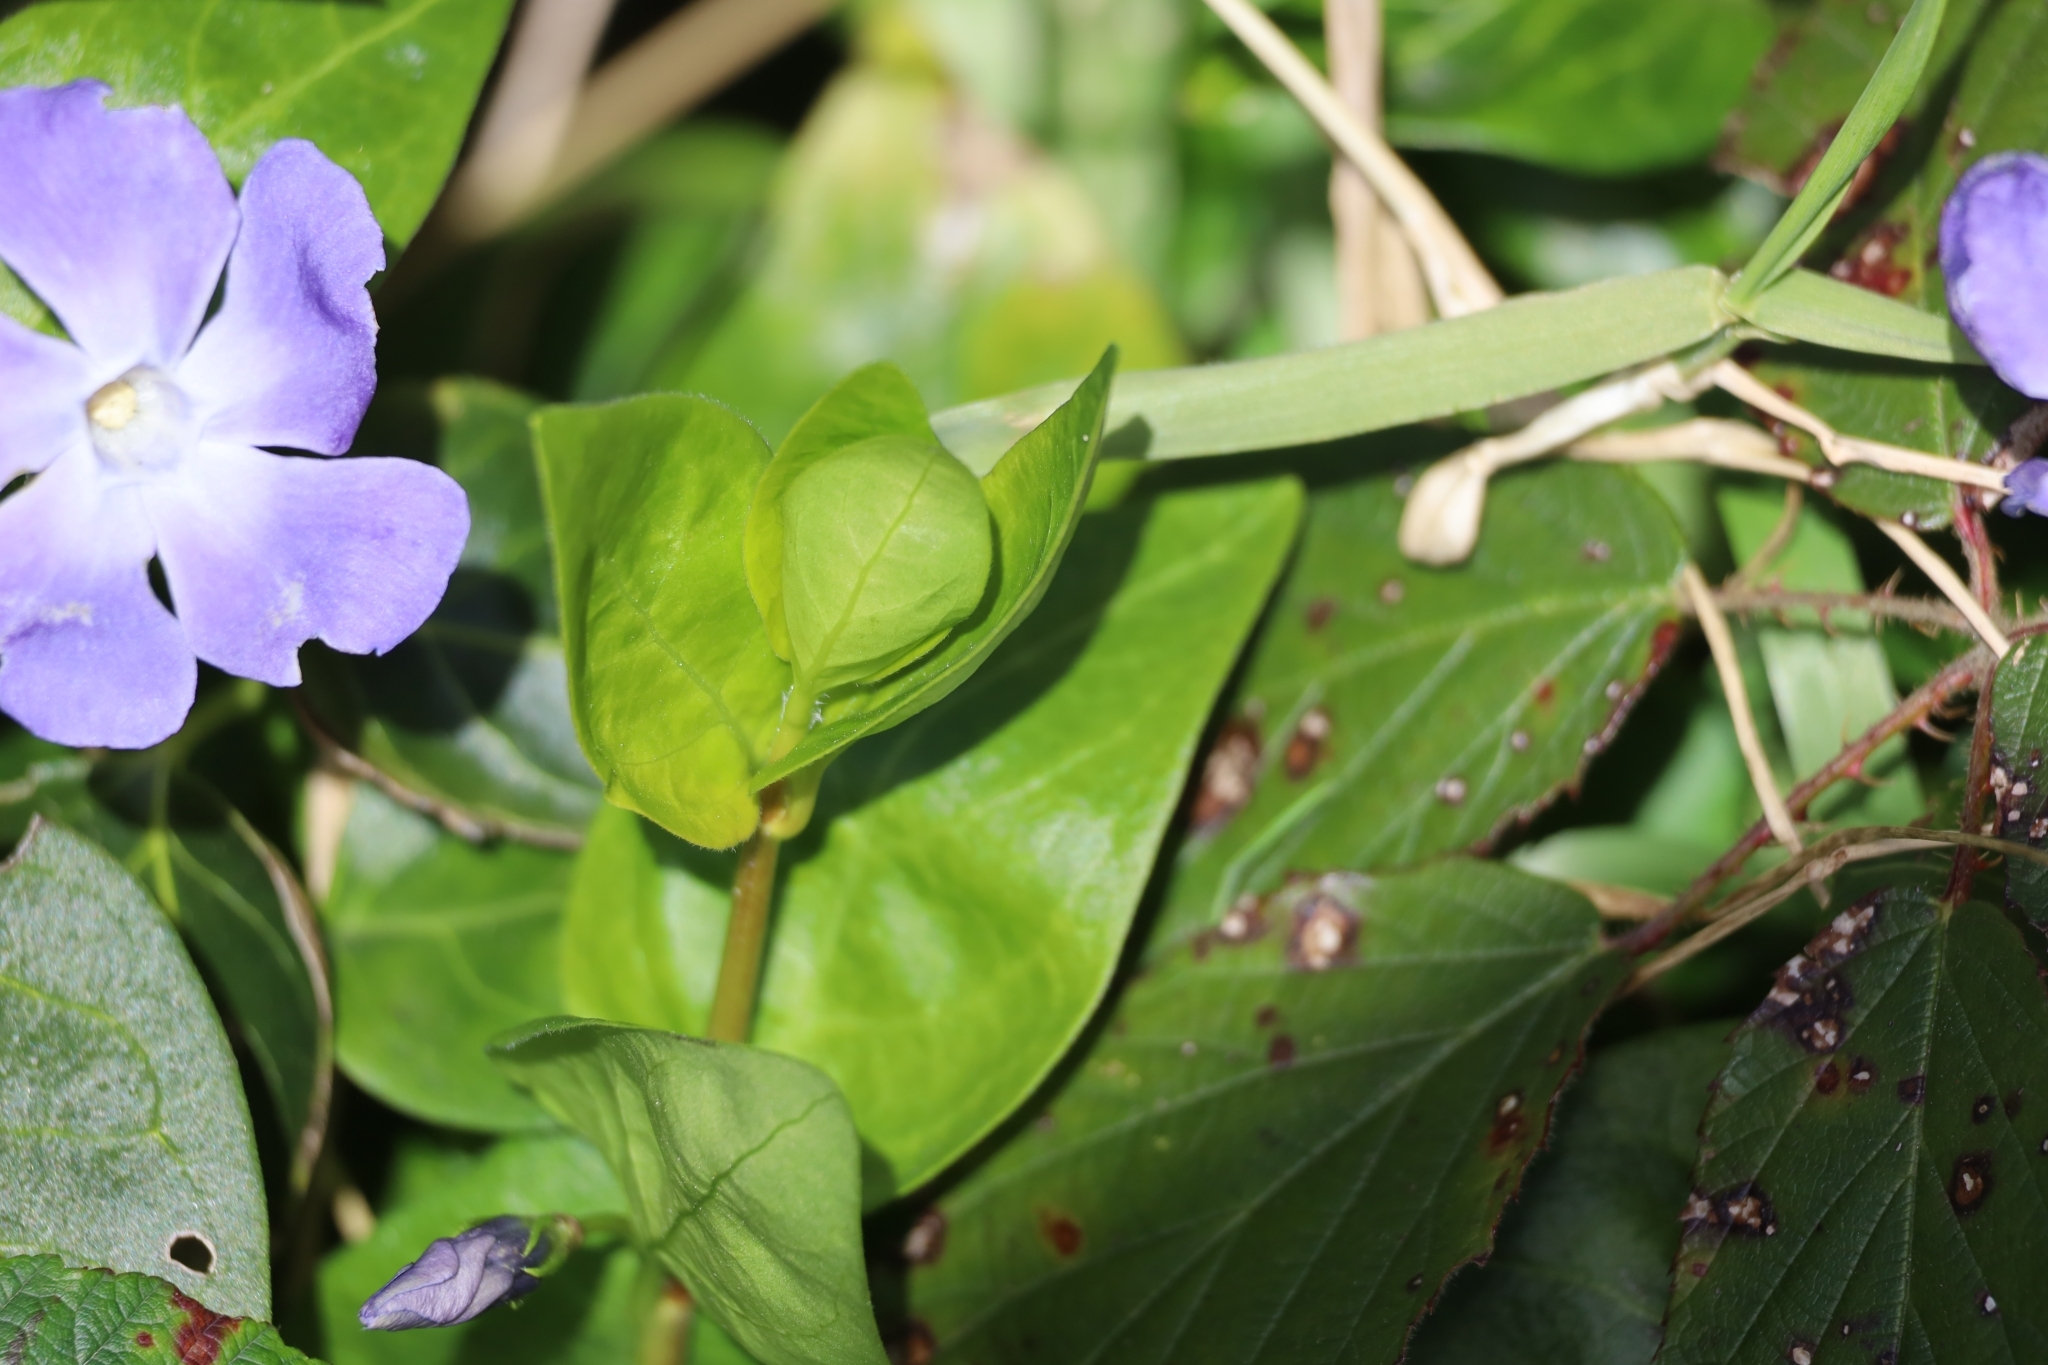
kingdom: Plantae
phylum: Tracheophyta
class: Magnoliopsida
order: Gentianales
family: Apocynaceae
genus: Vinca
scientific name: Vinca major
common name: Greater periwinkle
